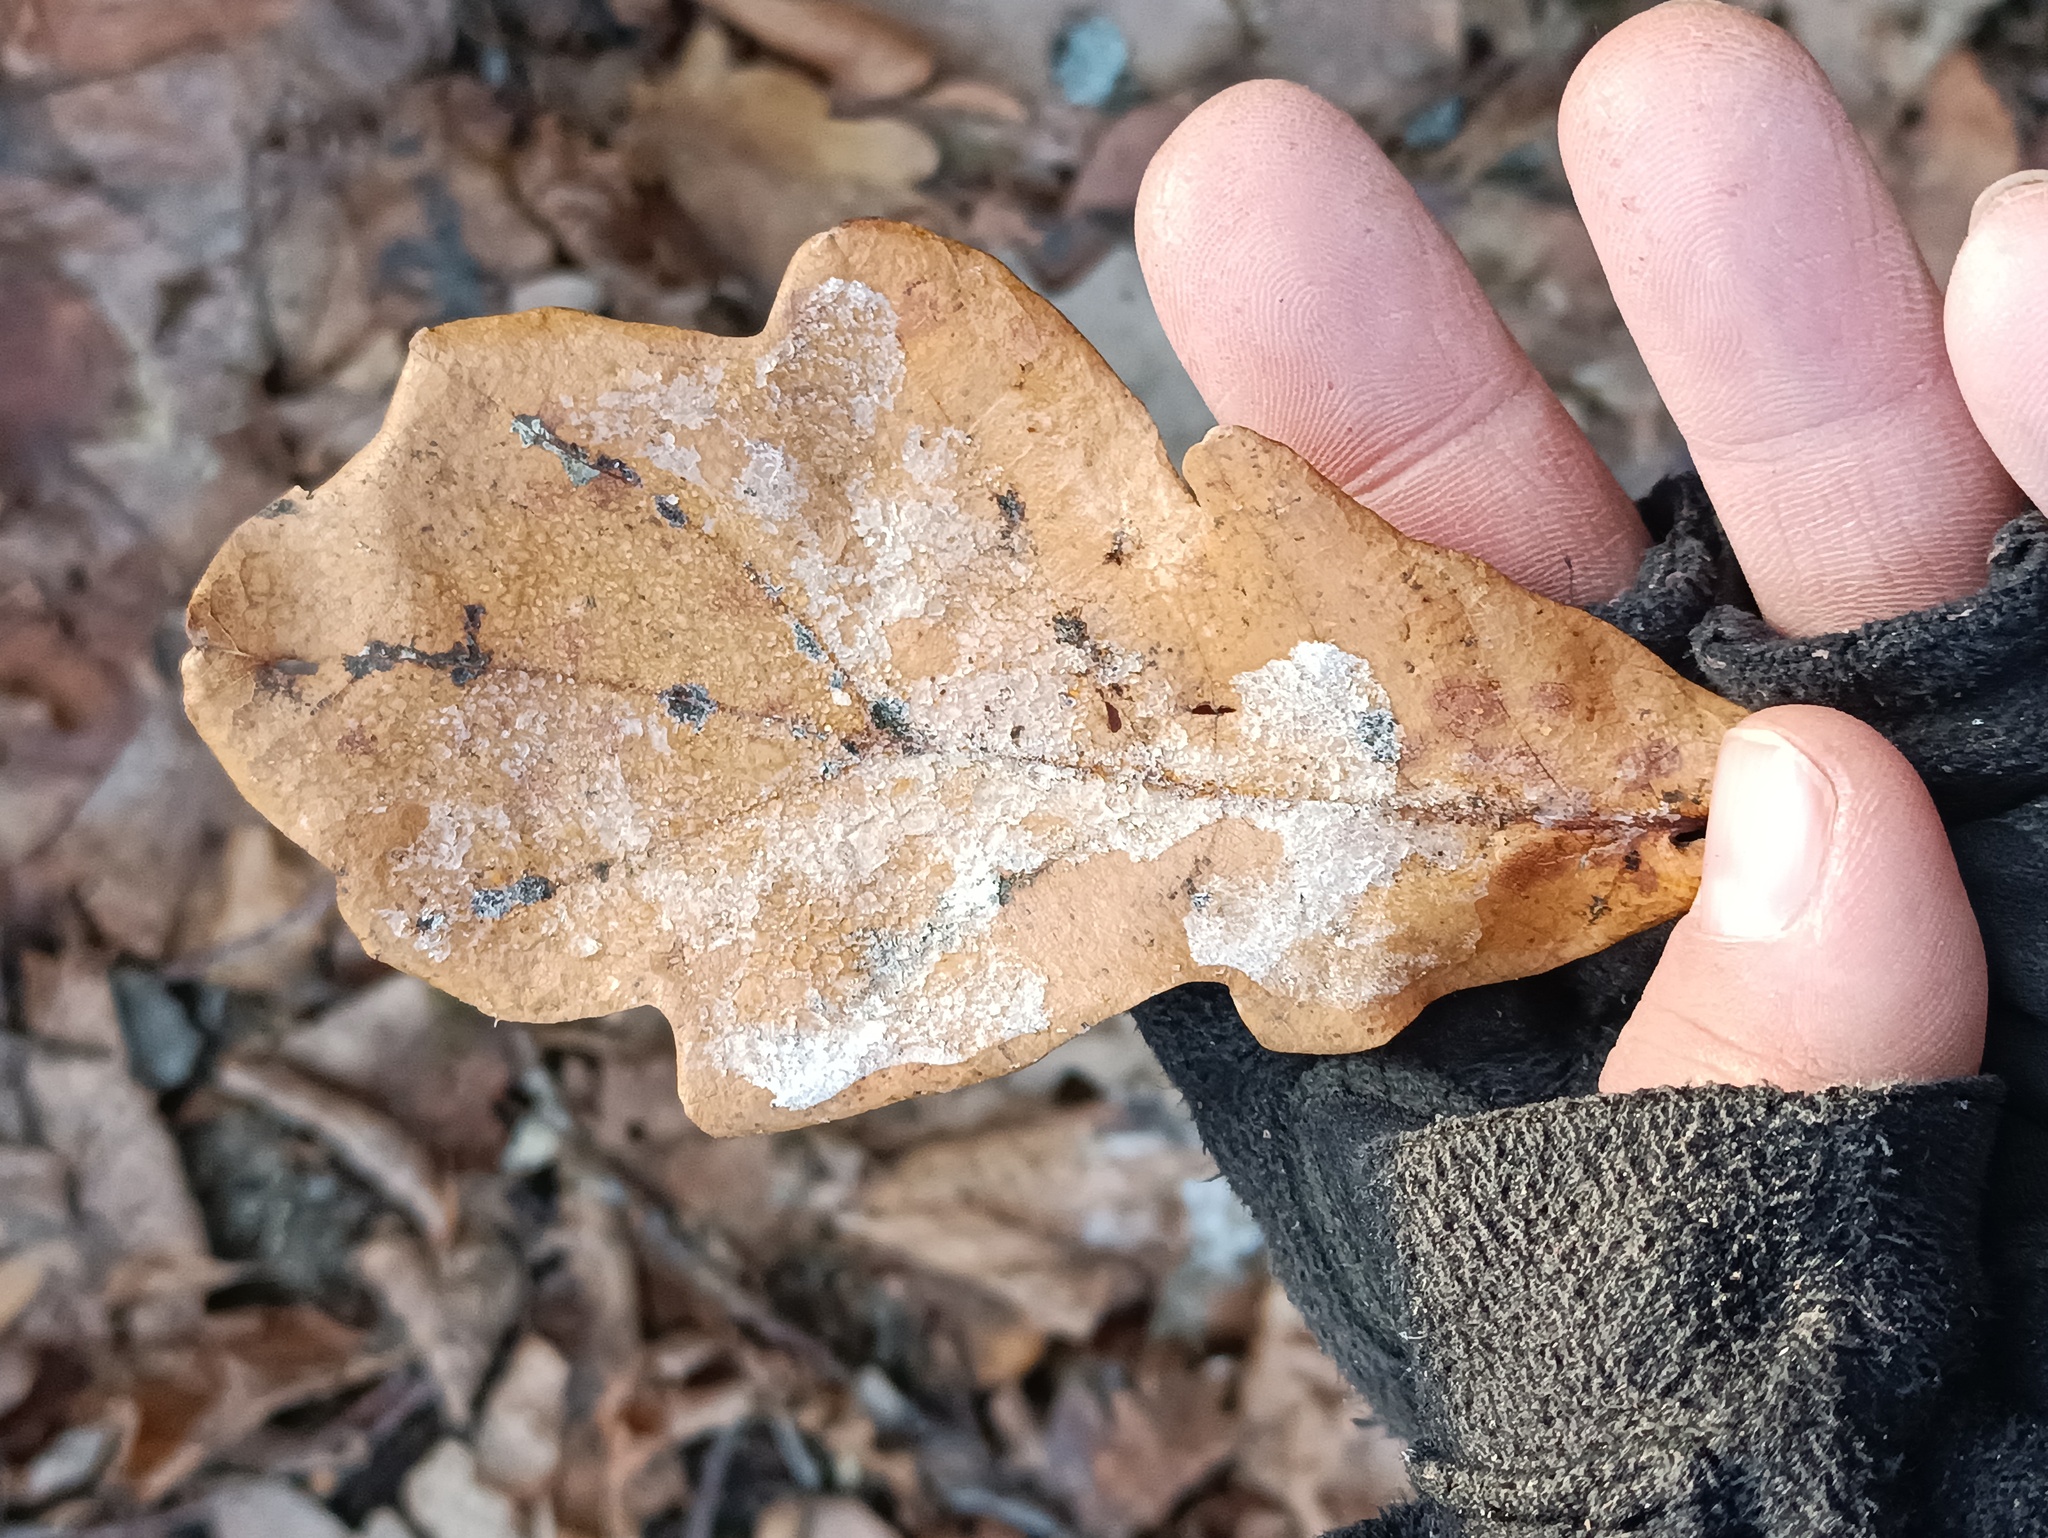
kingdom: Plantae
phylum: Tracheophyta
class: Magnoliopsida
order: Fagales
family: Fagaceae
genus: Quercus
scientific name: Quercus robur
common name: Pedunculate oak
